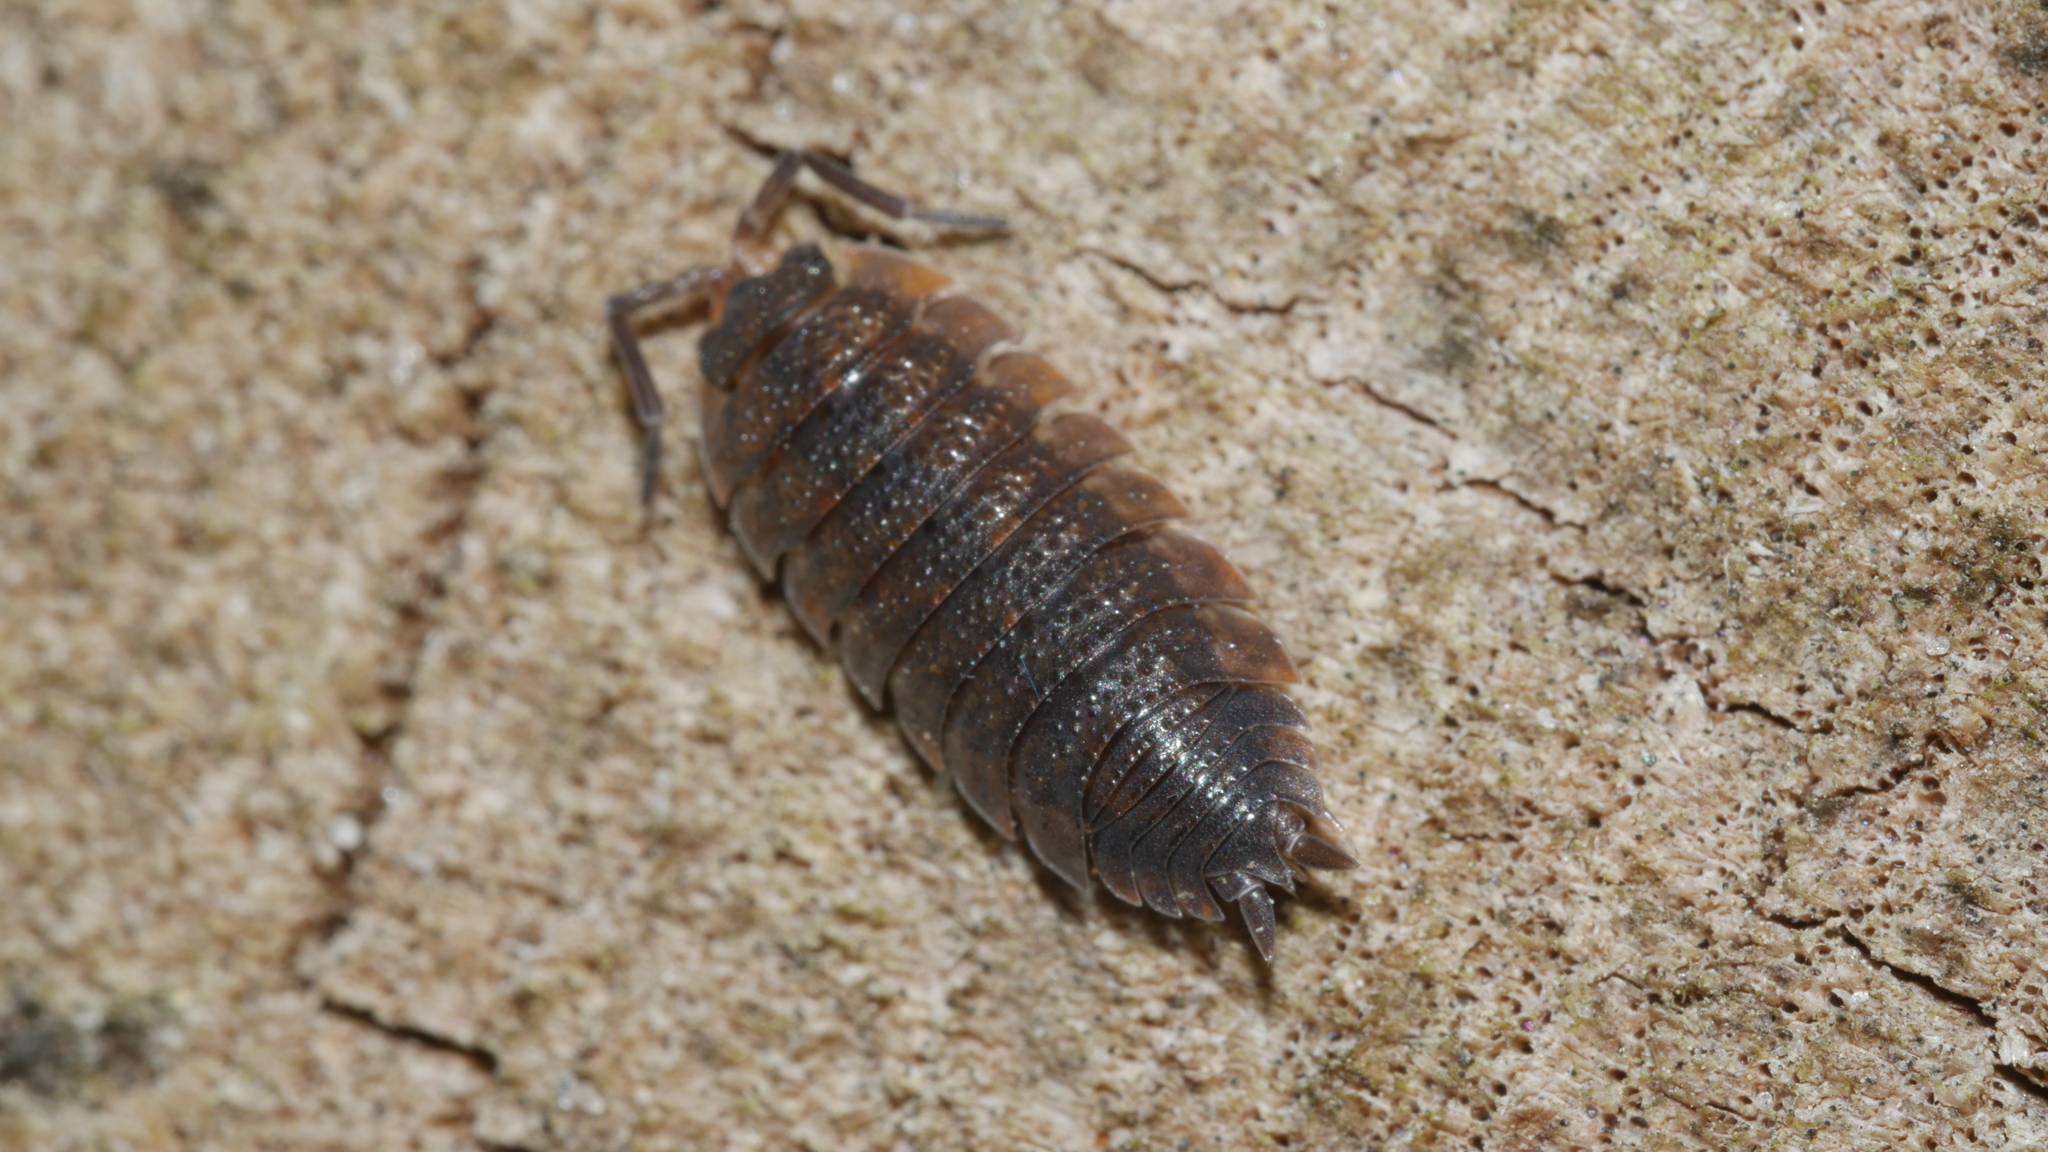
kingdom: Animalia
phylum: Arthropoda
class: Malacostraca
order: Isopoda
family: Porcellionidae
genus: Porcellio
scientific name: Porcellio scaber
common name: Common rough woodlouse
